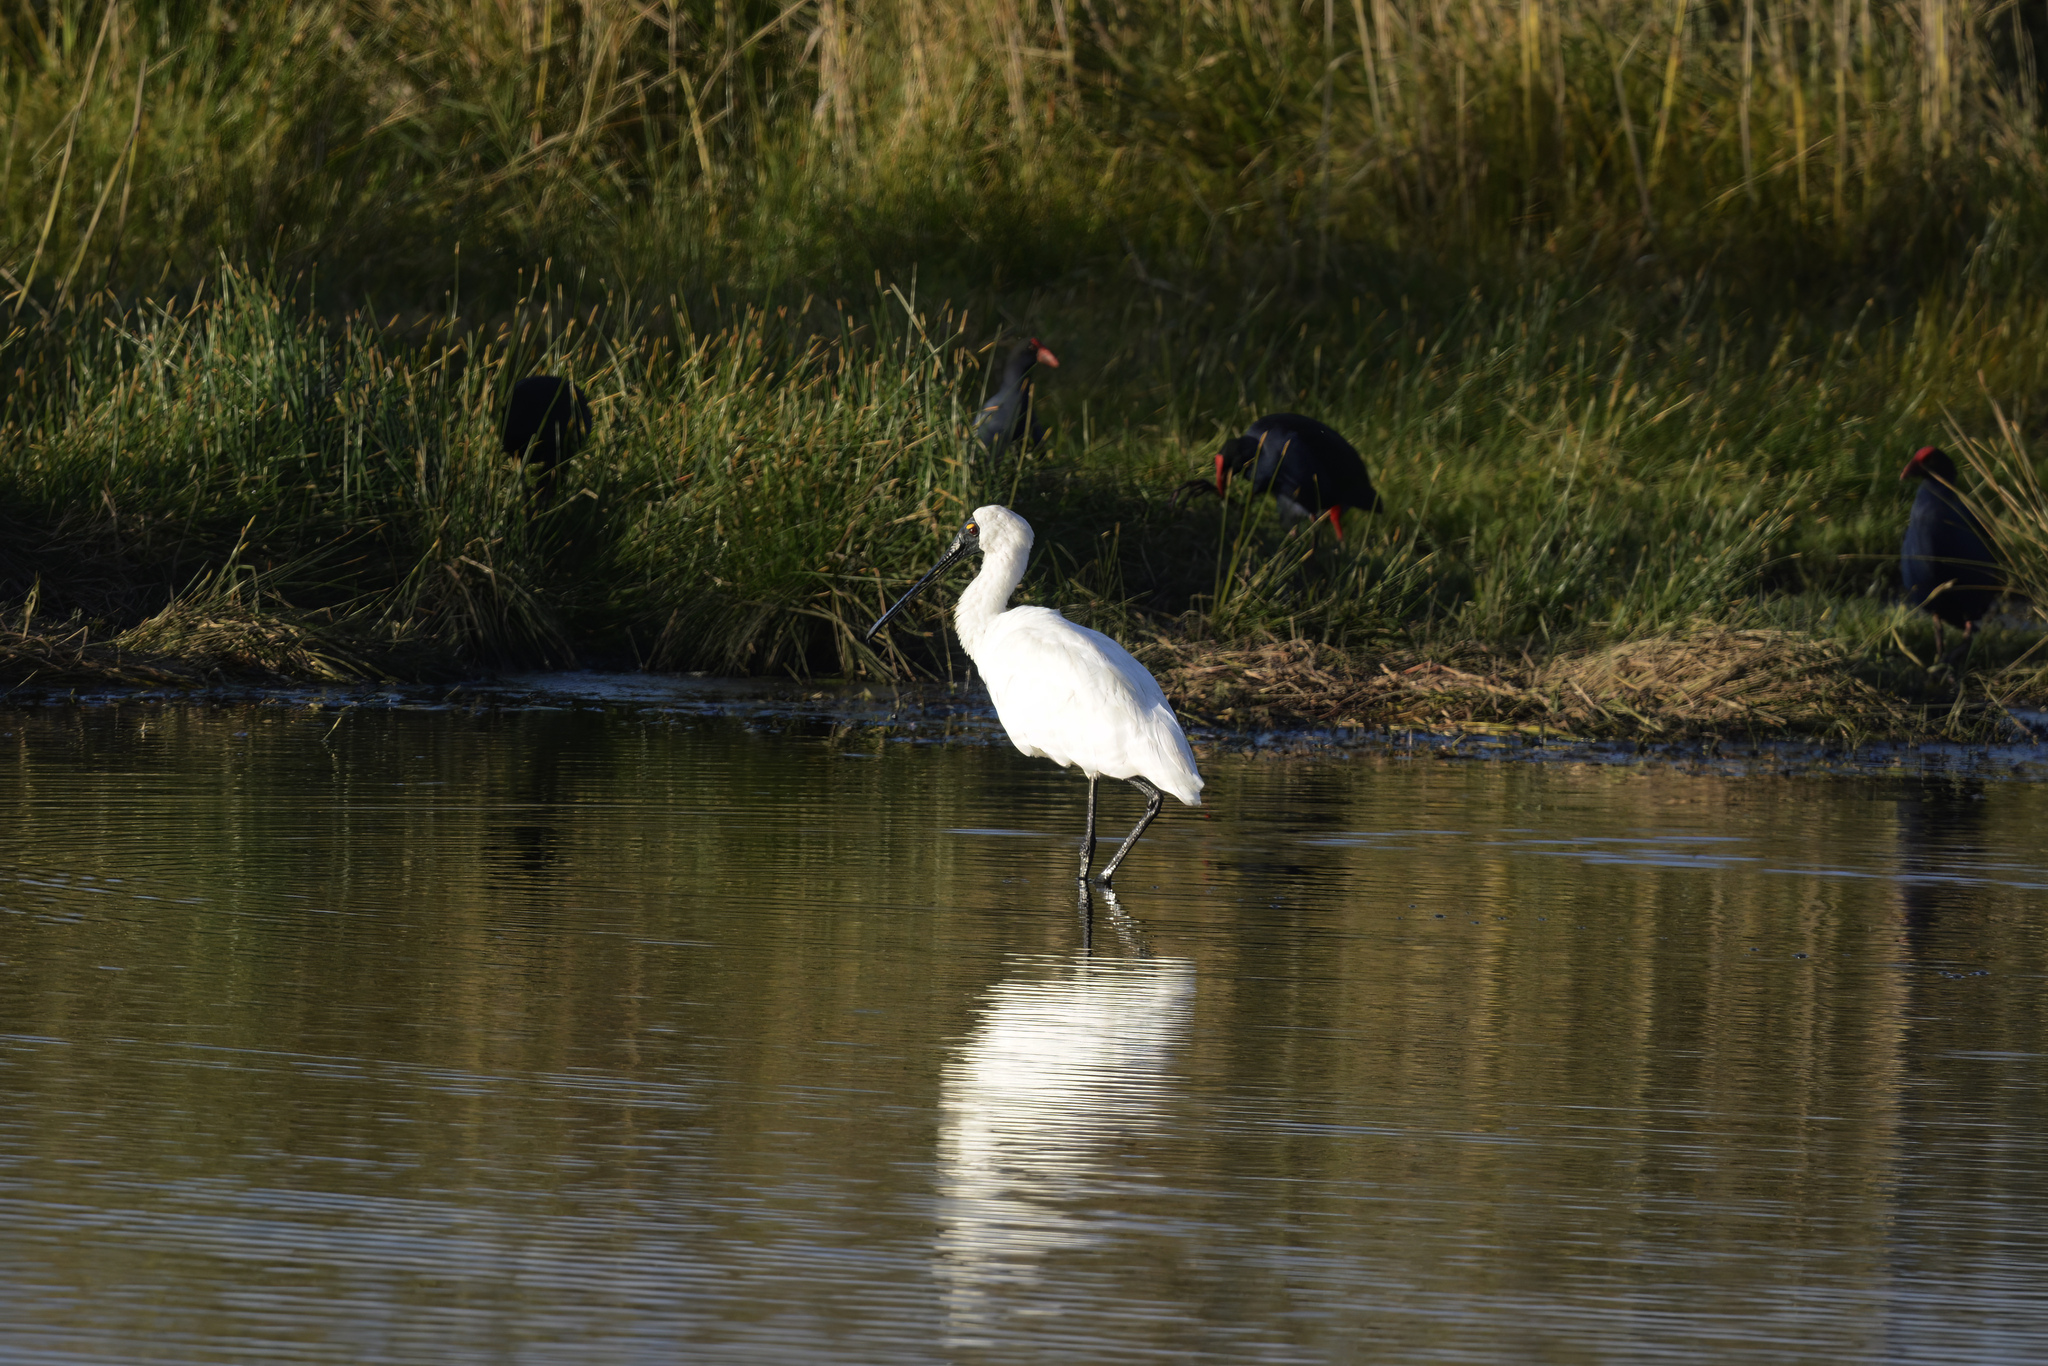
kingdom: Animalia
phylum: Chordata
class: Aves
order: Pelecaniformes
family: Threskiornithidae
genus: Platalea
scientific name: Platalea regia
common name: Royal spoonbill
